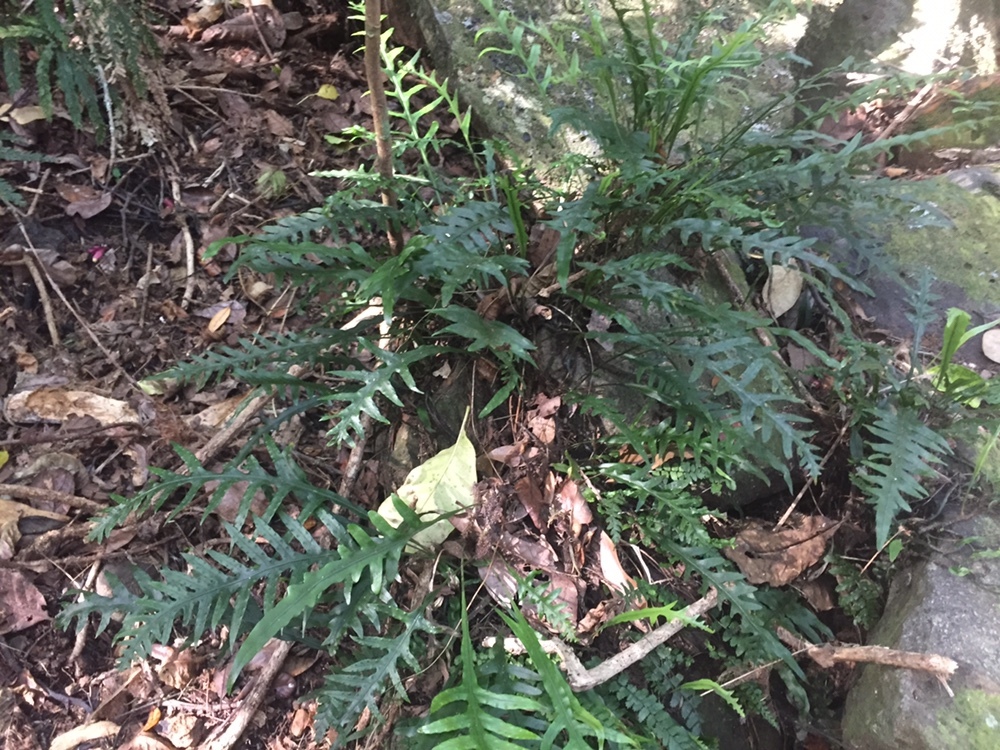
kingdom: Plantae
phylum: Tracheophyta
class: Polypodiopsida
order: Polypodiales
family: Polypodiaceae
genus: Lecanopteris
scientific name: Lecanopteris scandens
